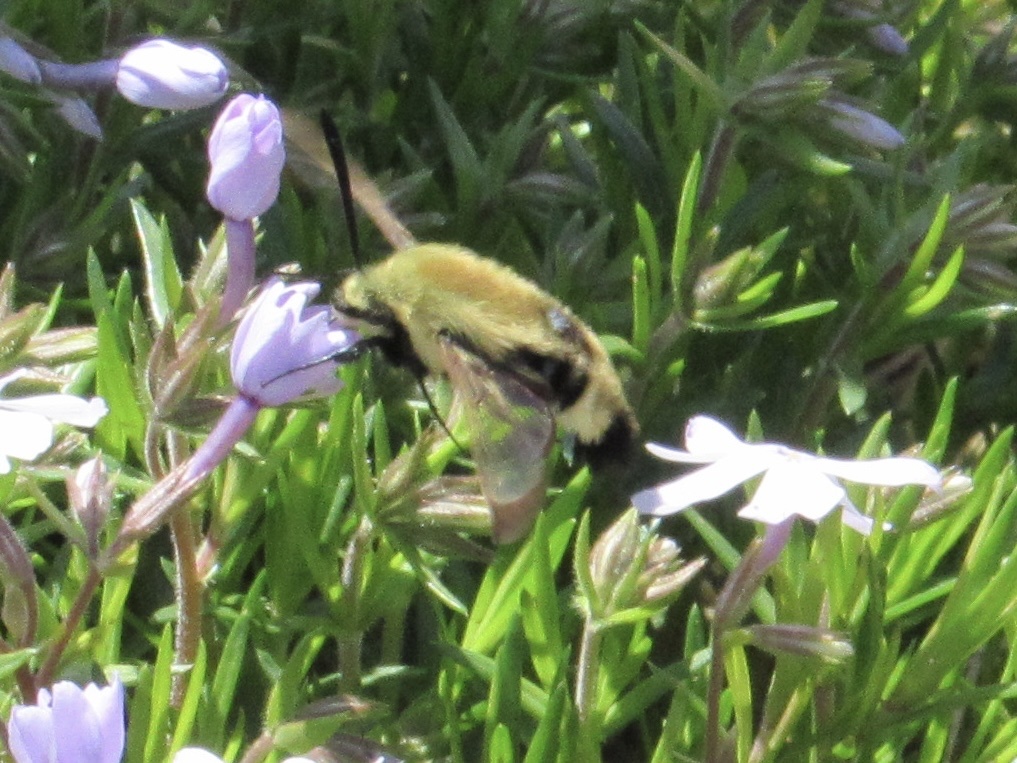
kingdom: Animalia
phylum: Arthropoda
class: Insecta
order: Lepidoptera
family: Sphingidae
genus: Hemaris
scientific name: Hemaris diffinis
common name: Bumblebee moth
